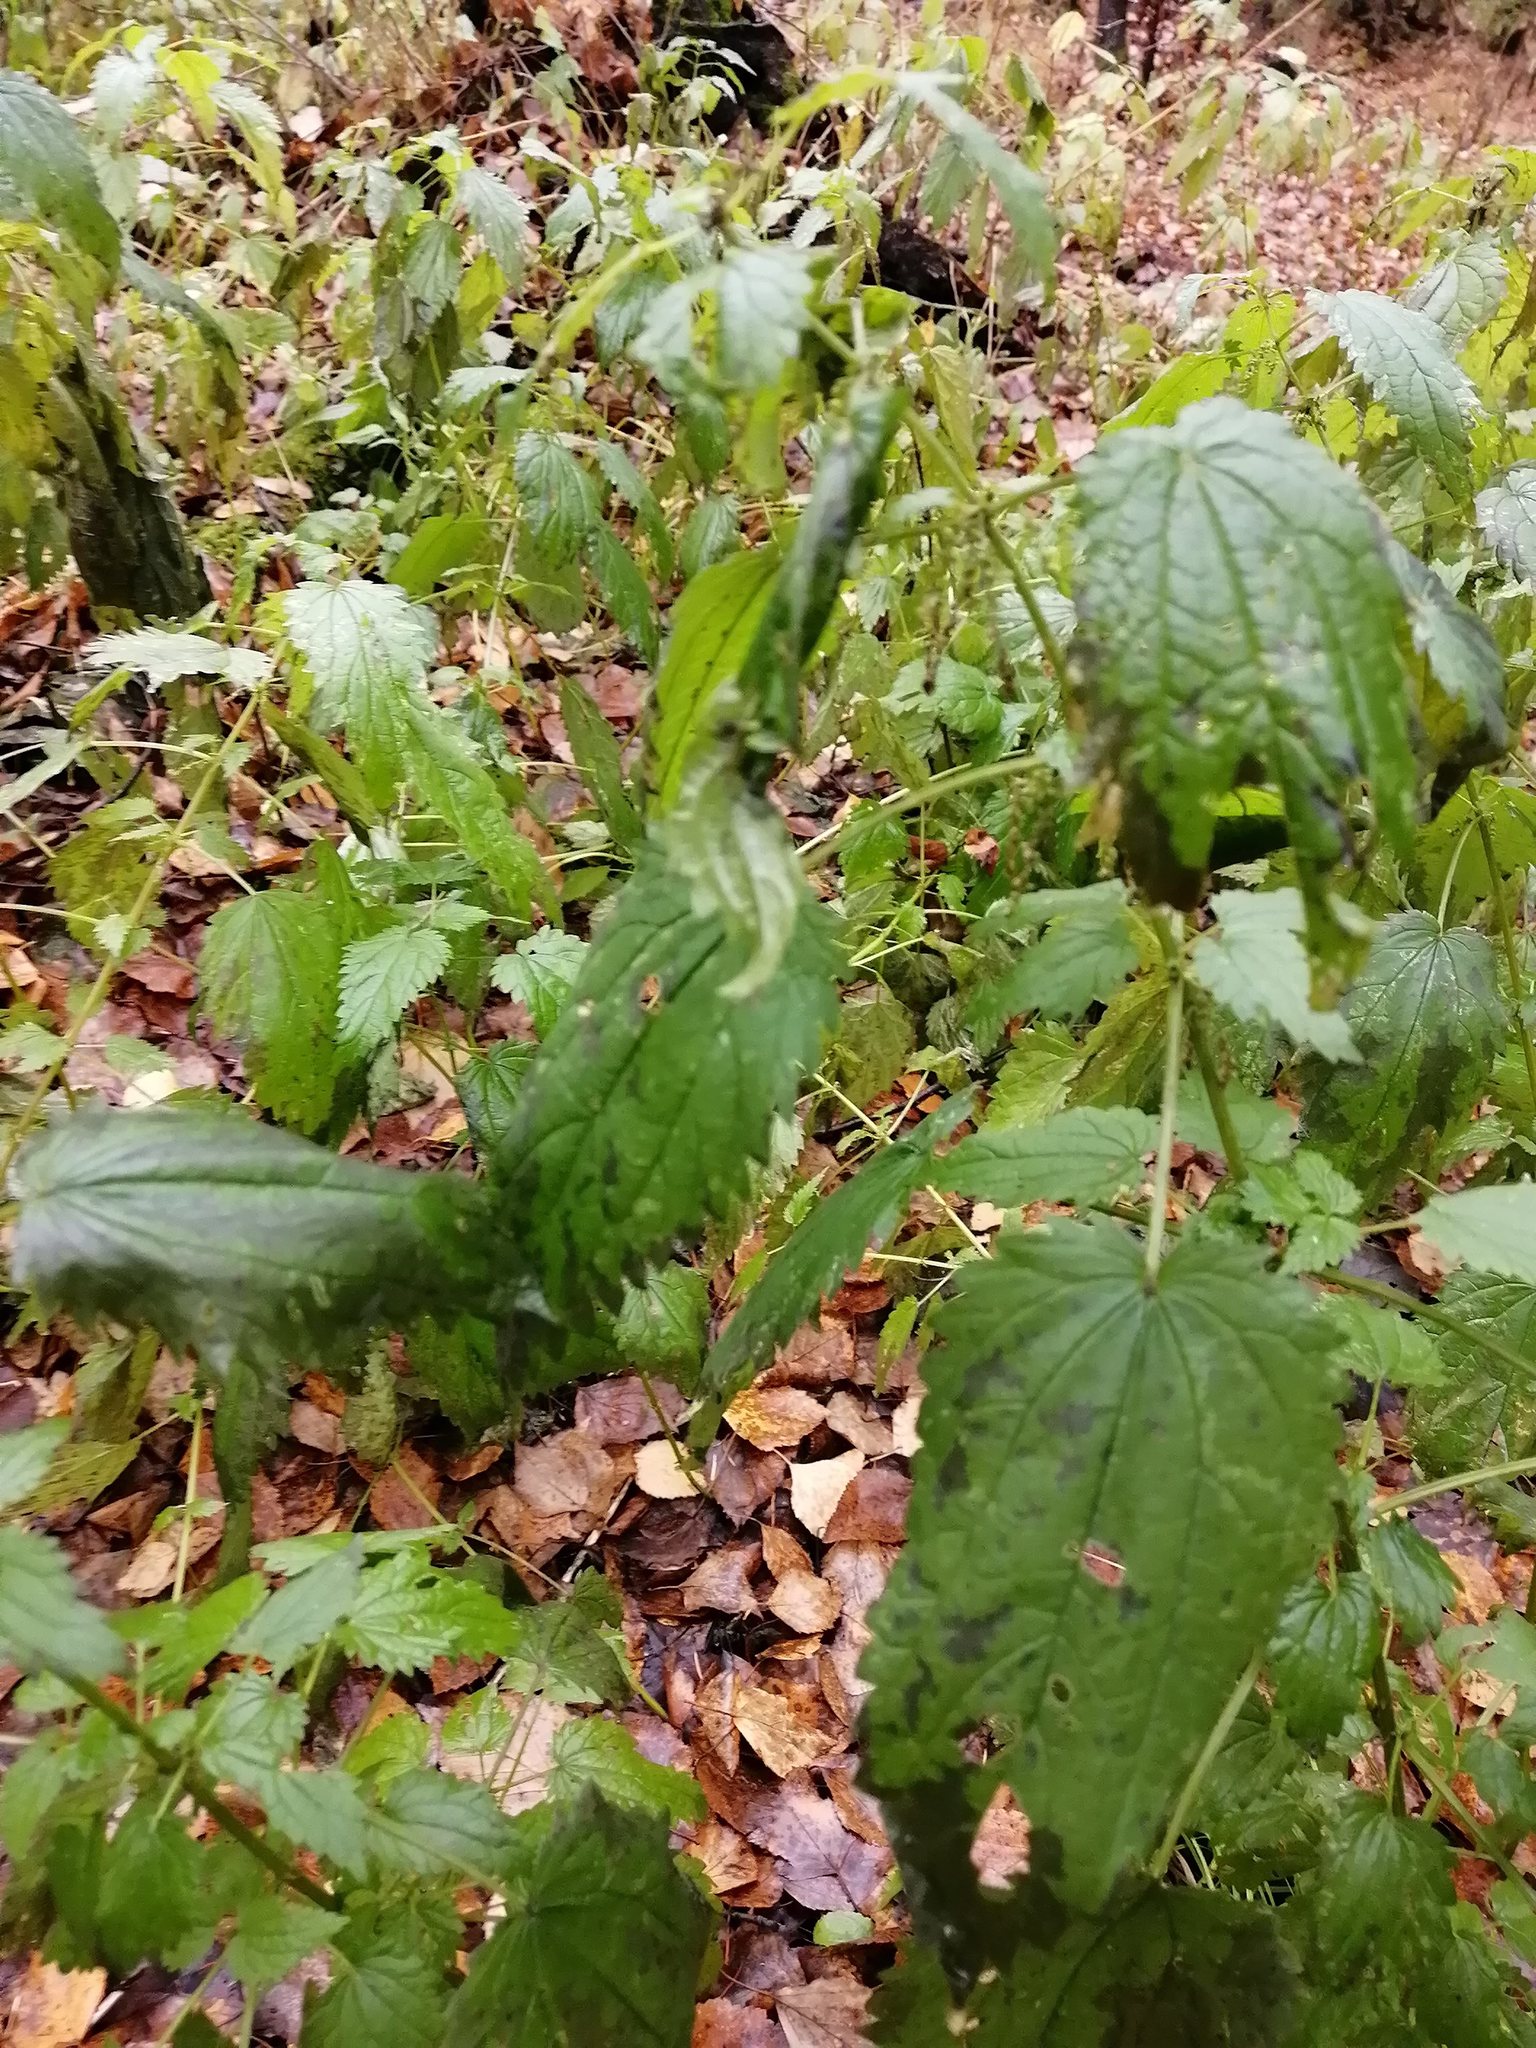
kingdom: Plantae
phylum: Tracheophyta
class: Magnoliopsida
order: Rosales
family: Urticaceae
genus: Urtica
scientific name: Urtica dioica
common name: Common nettle
